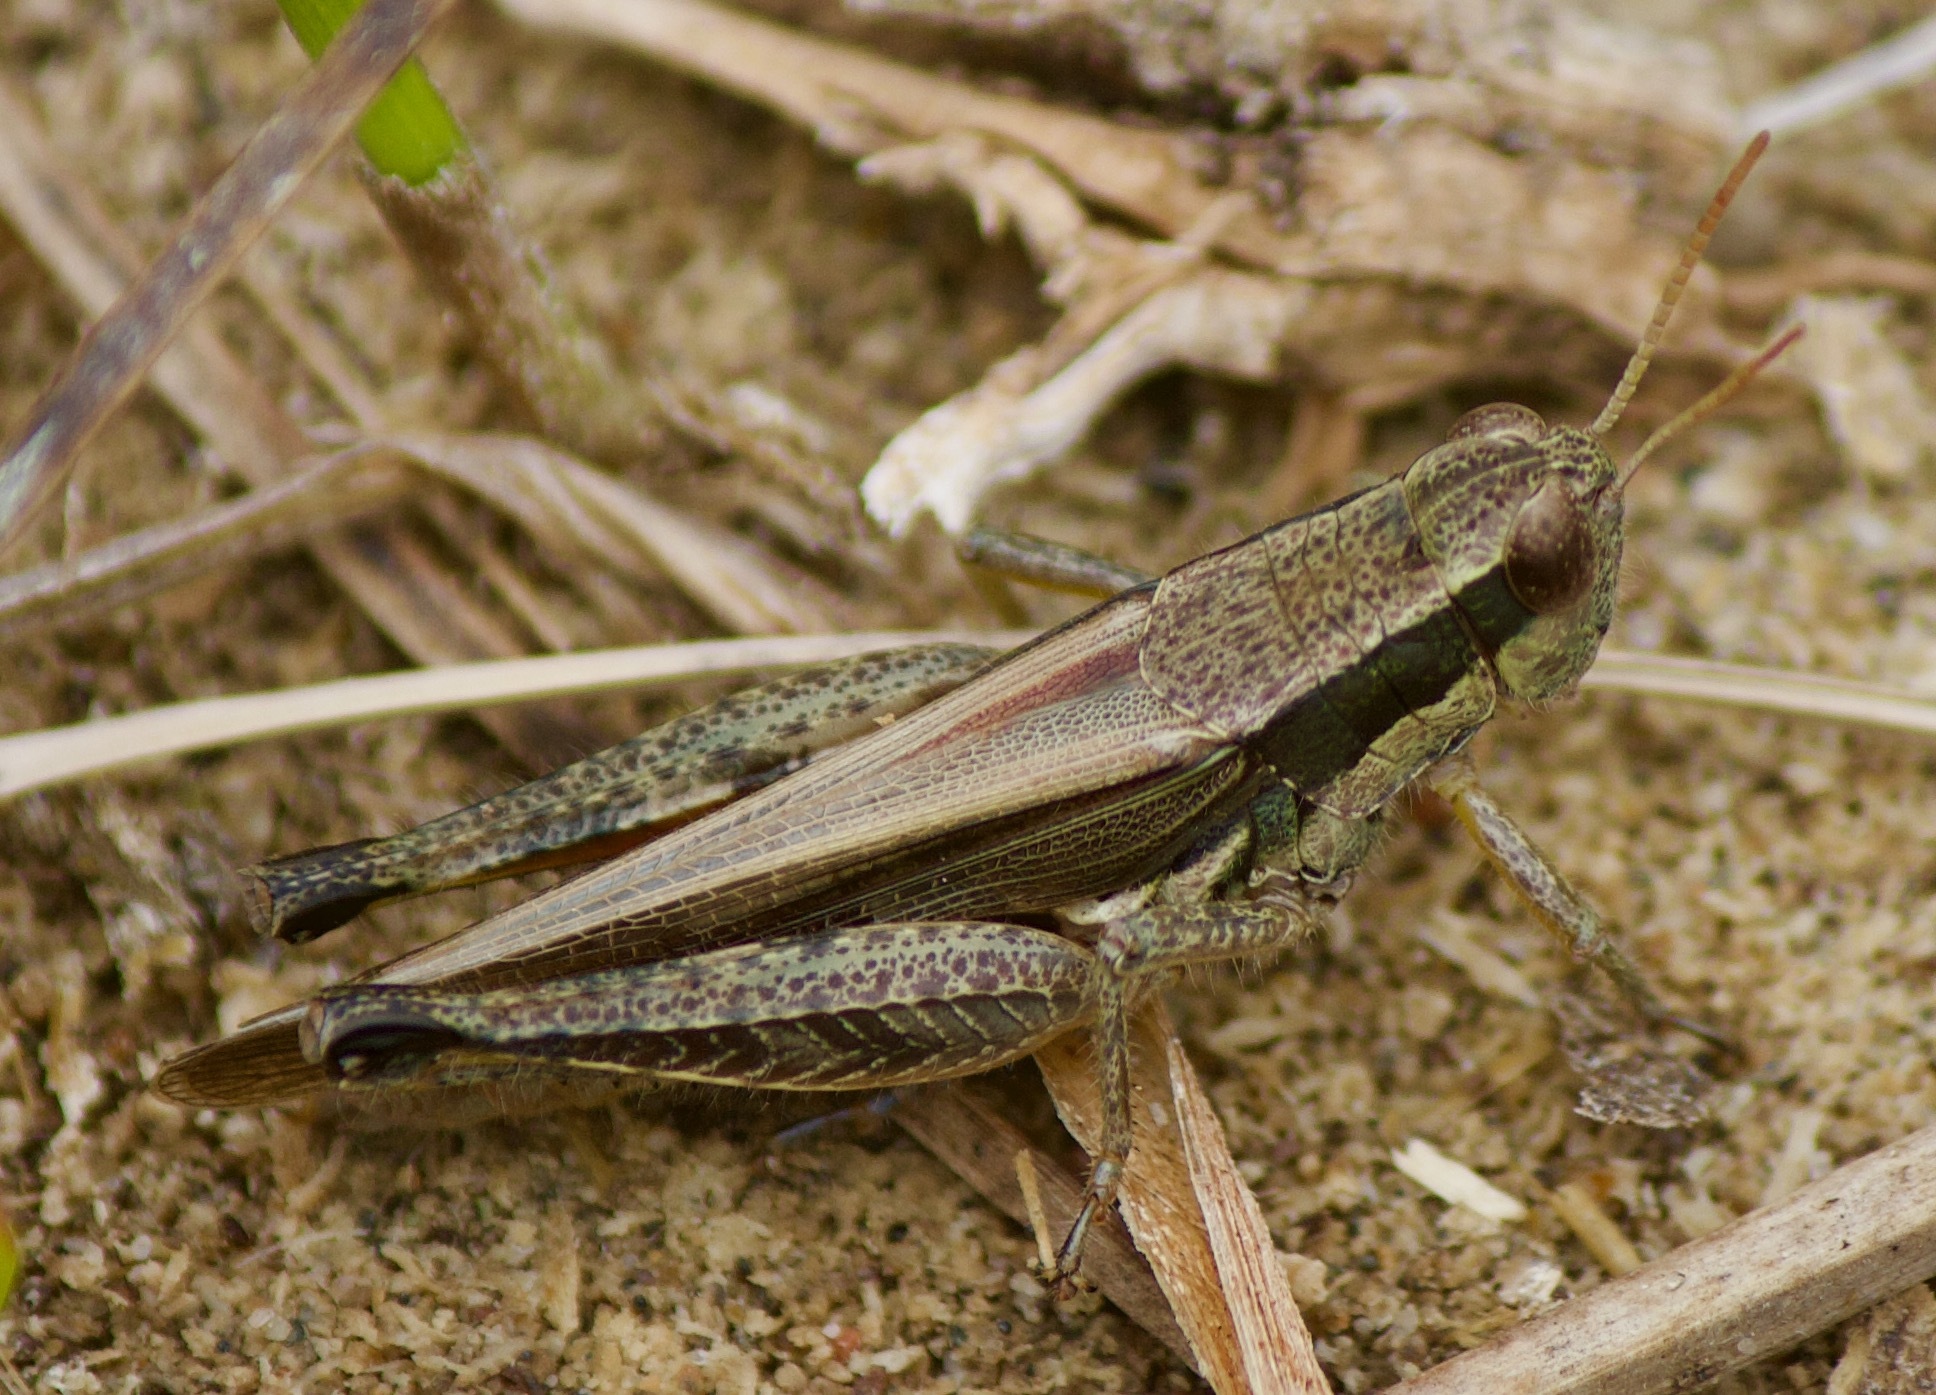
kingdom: Animalia
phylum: Arthropoda
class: Insecta
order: Orthoptera
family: Acrididae
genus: Dichroplus
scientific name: Dichroplus elongatus
